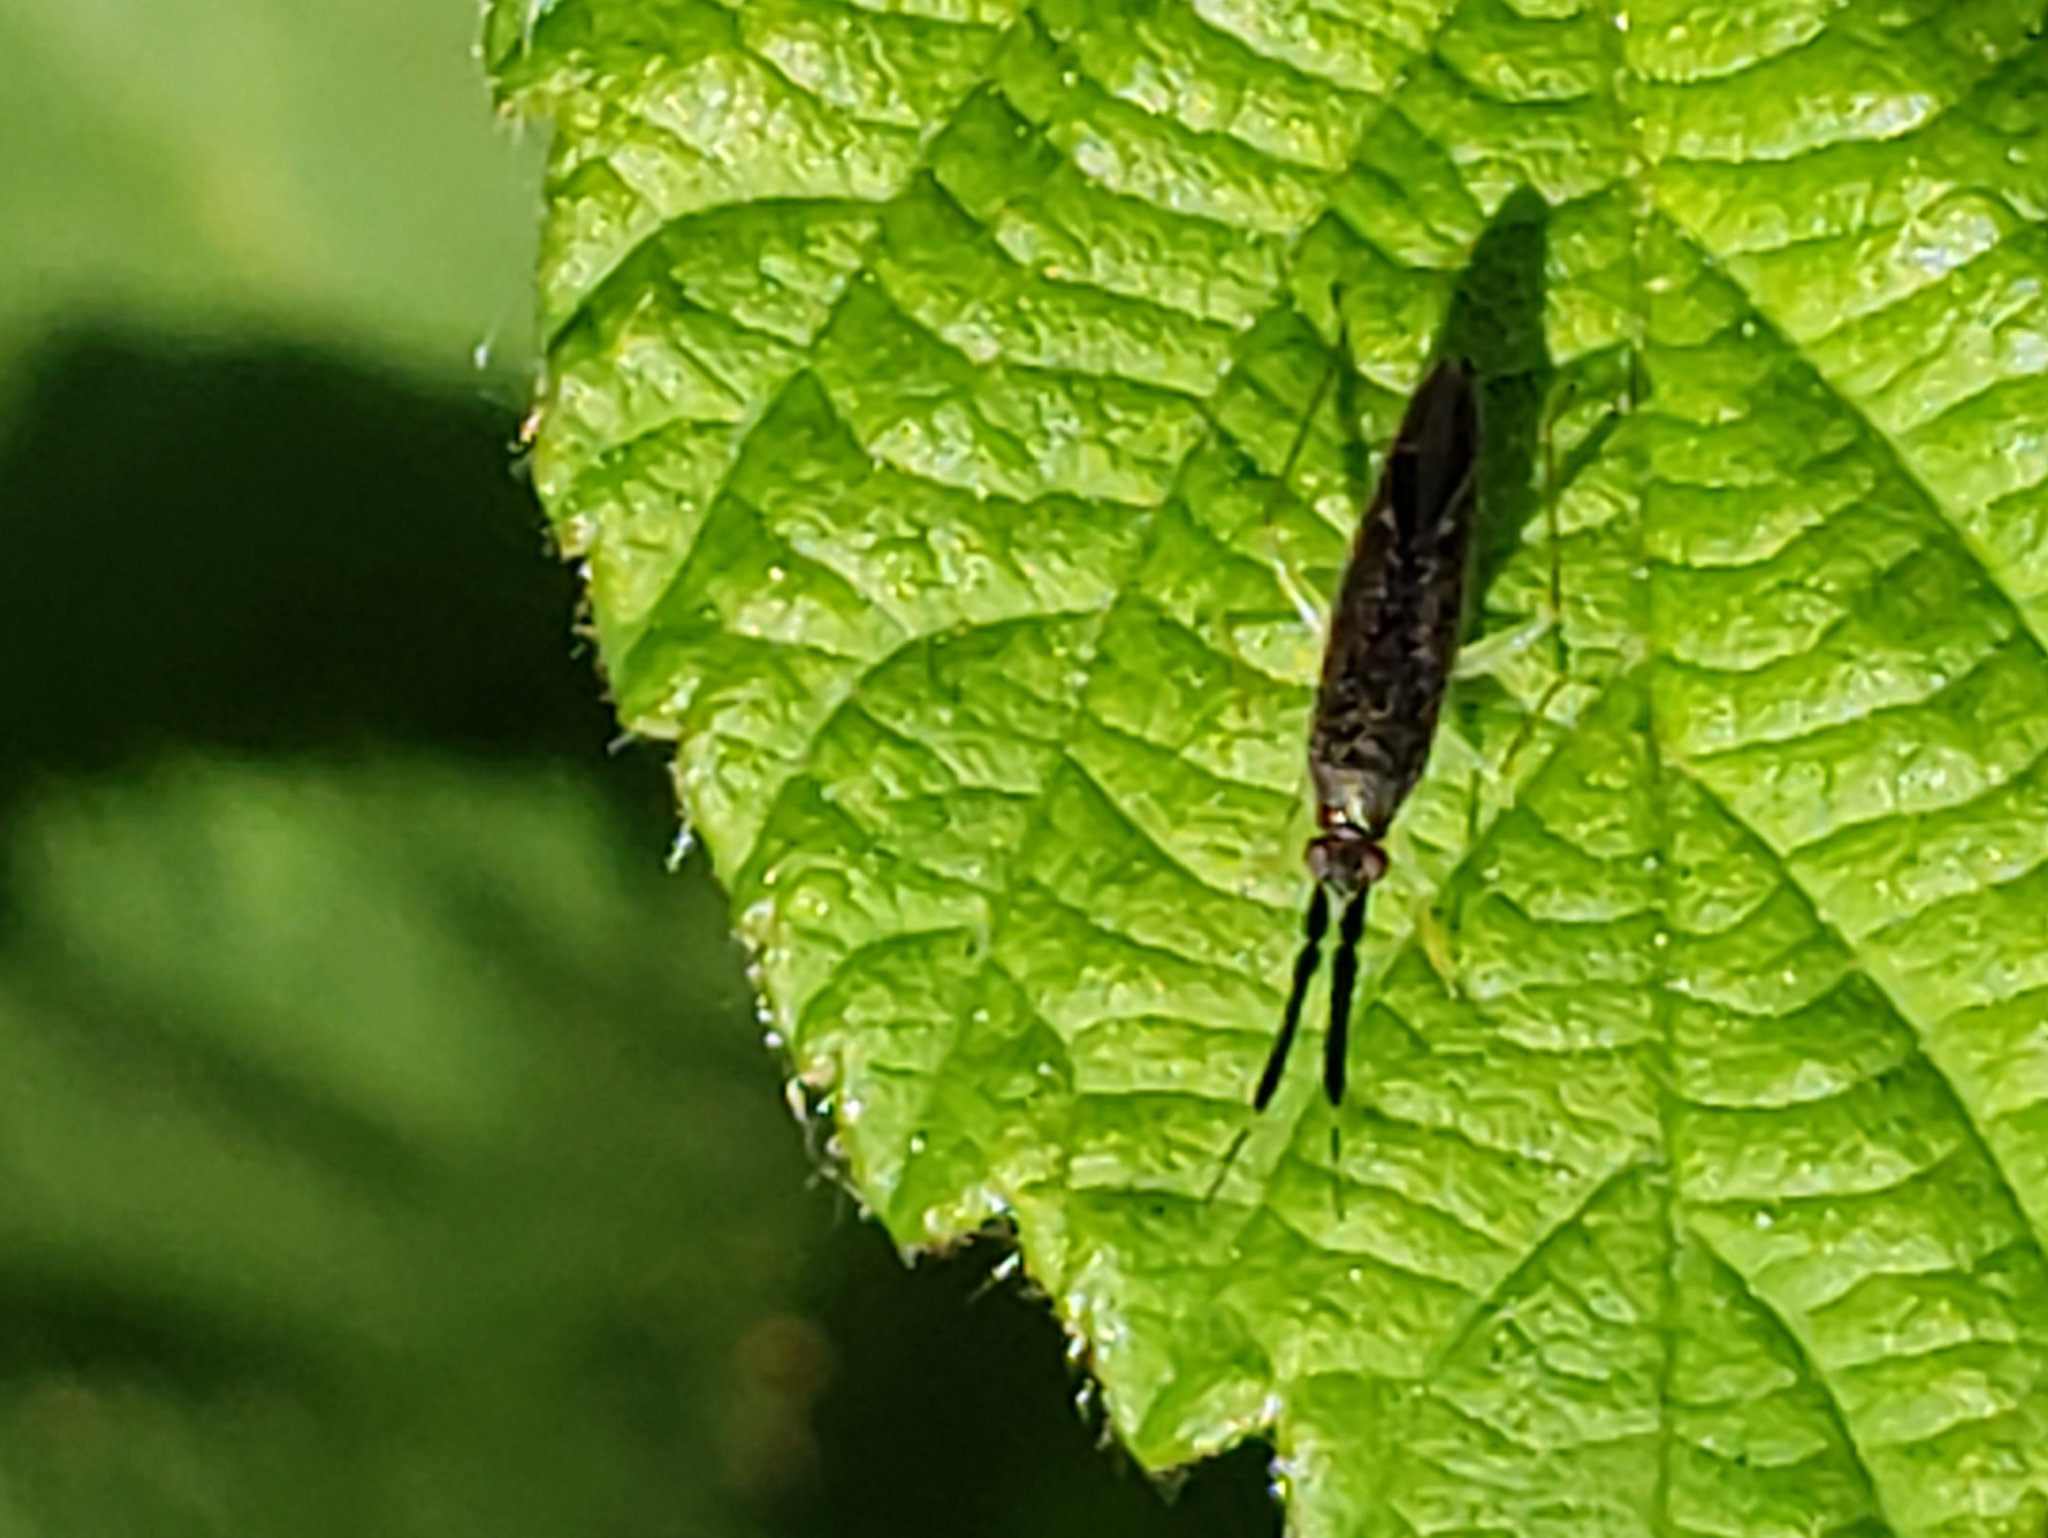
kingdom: Animalia
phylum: Arthropoda
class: Insecta
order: Hemiptera
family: Miridae
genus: Heterotoma
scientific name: Heterotoma planicornis
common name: Plant bug
